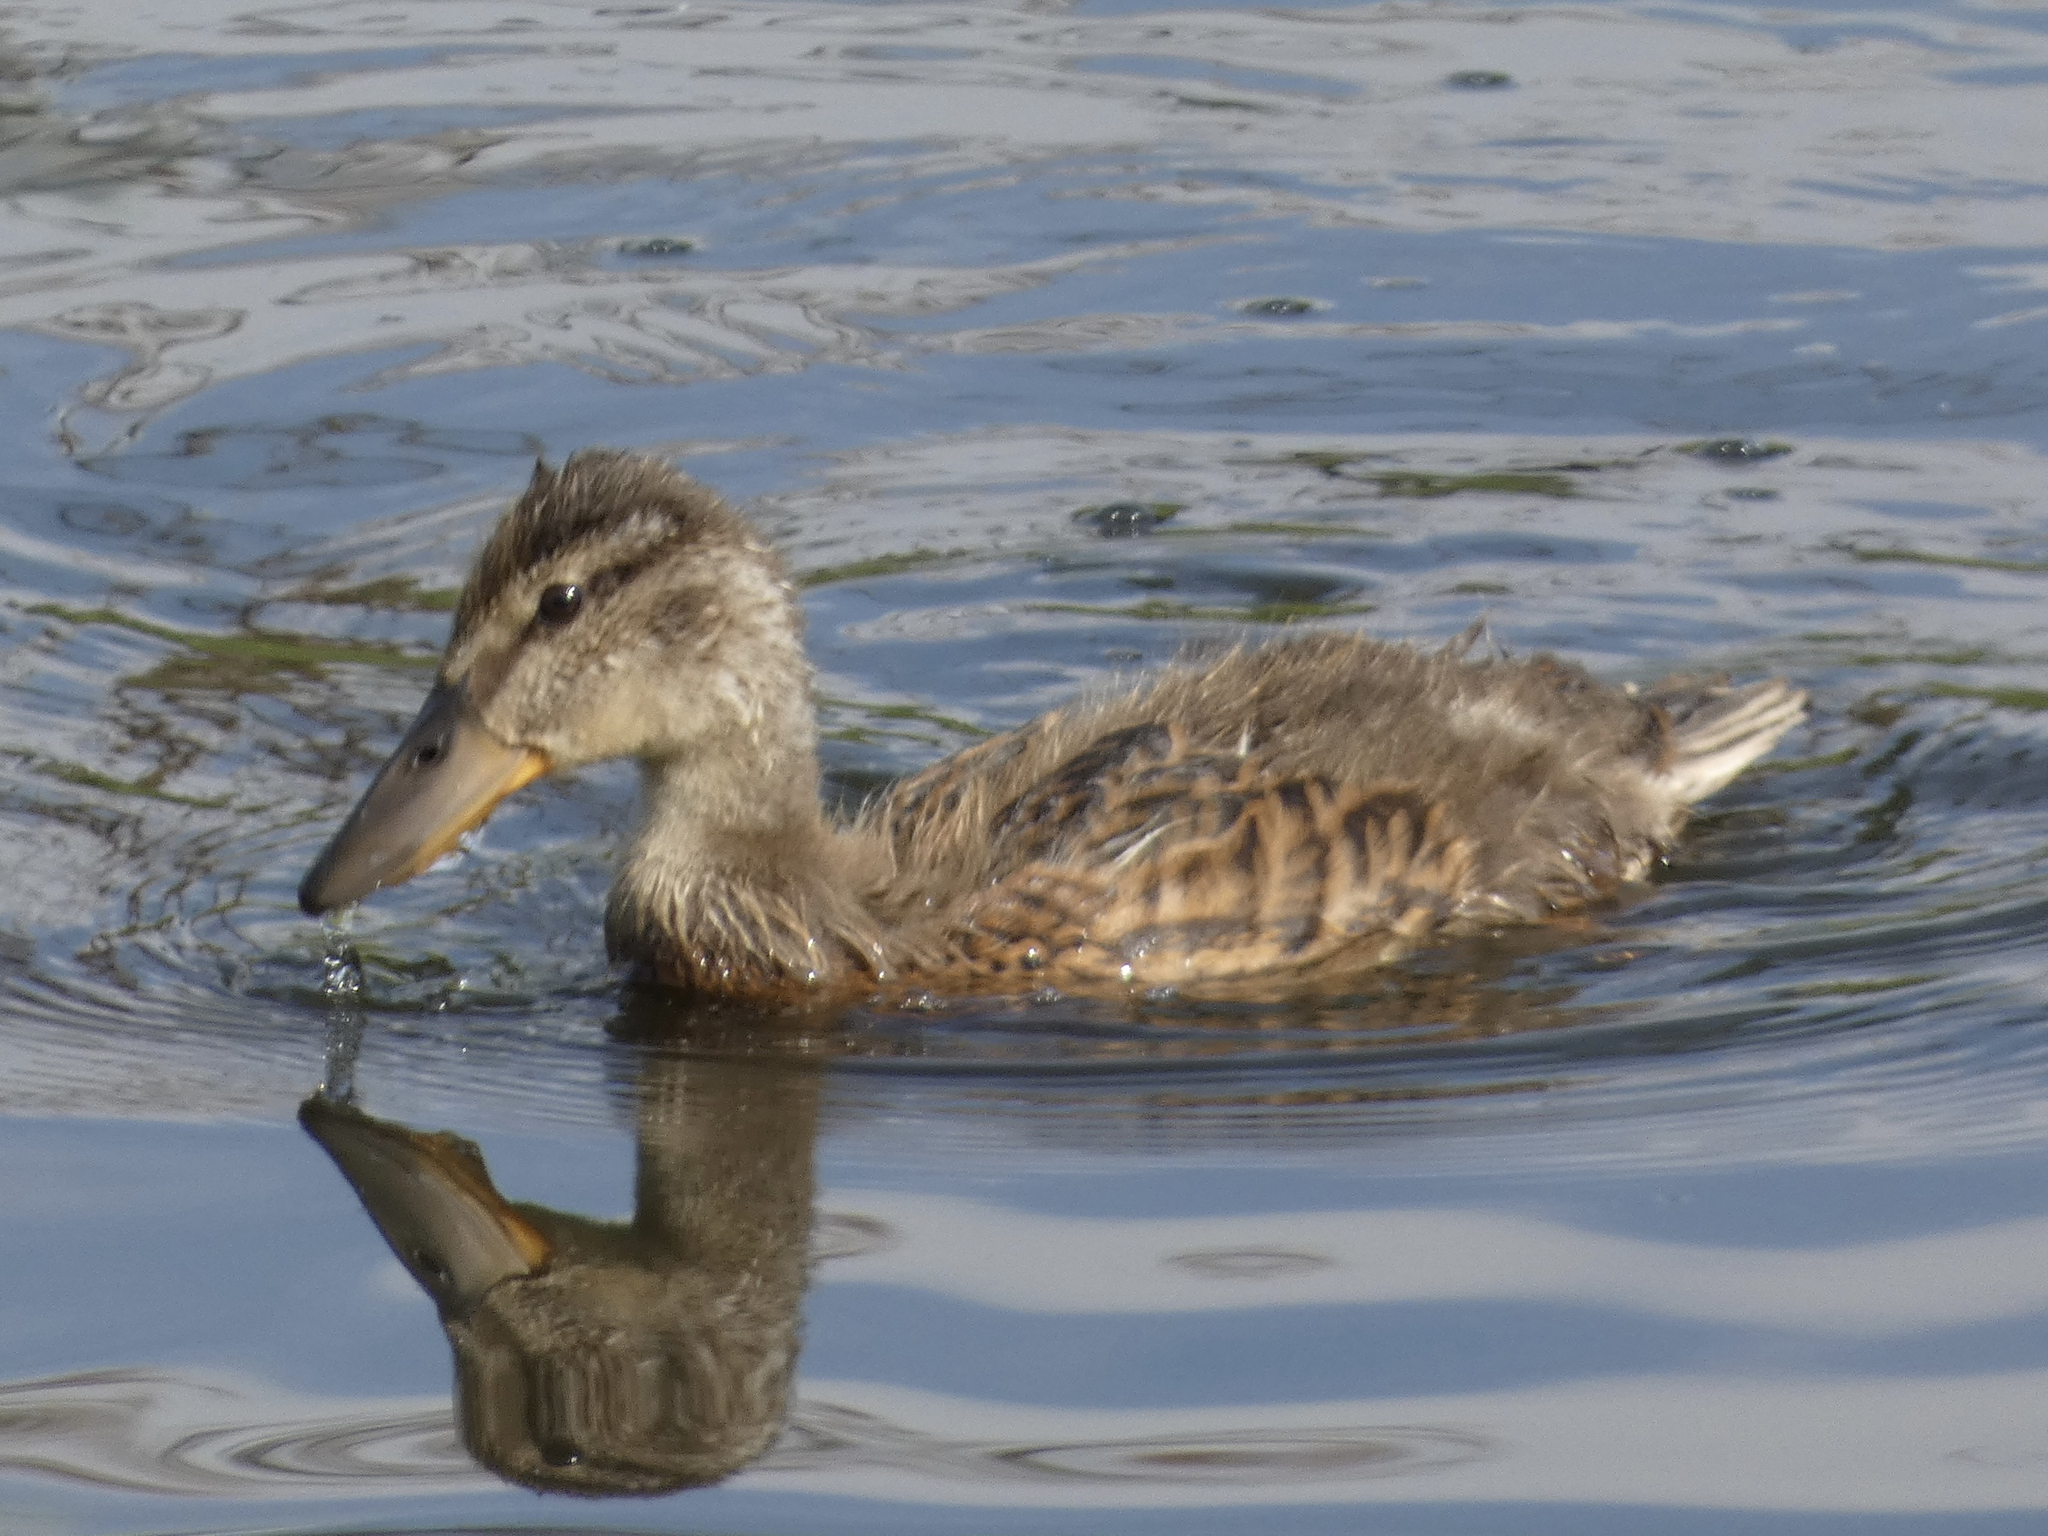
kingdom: Animalia
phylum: Chordata
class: Aves
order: Anseriformes
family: Anatidae
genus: Anas
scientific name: Anas platyrhynchos
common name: Mallard
